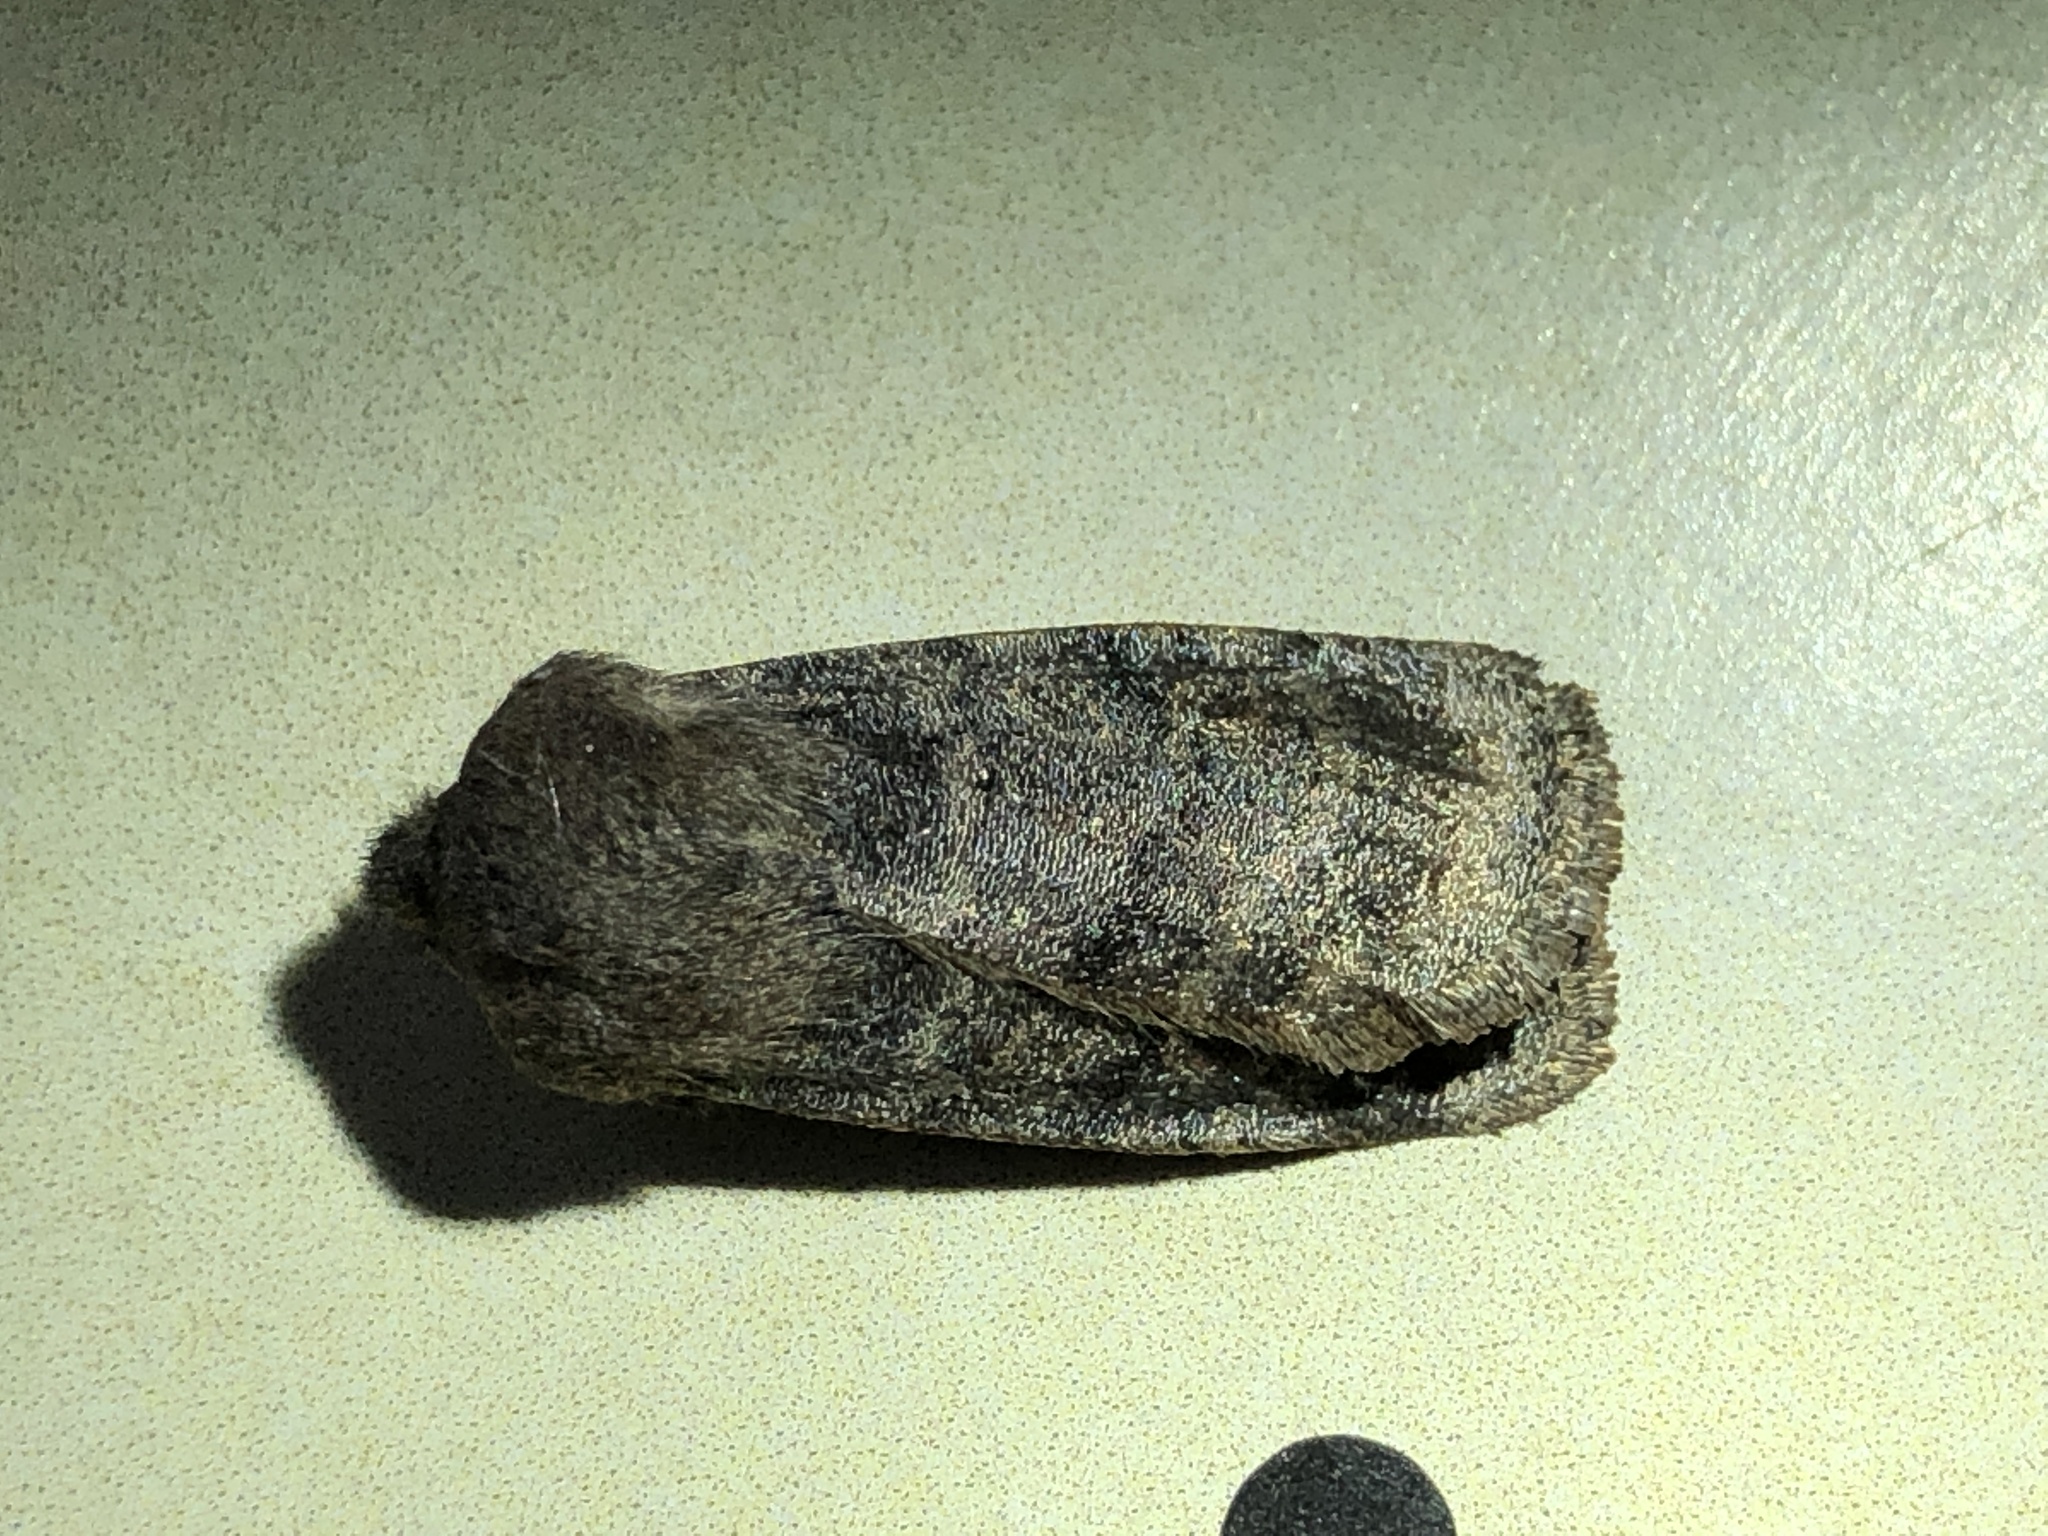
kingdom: Animalia
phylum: Arthropoda
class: Insecta
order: Lepidoptera
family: Noctuidae
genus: Homoglaea
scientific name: Homoglaea hircina
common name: Goat sallow
